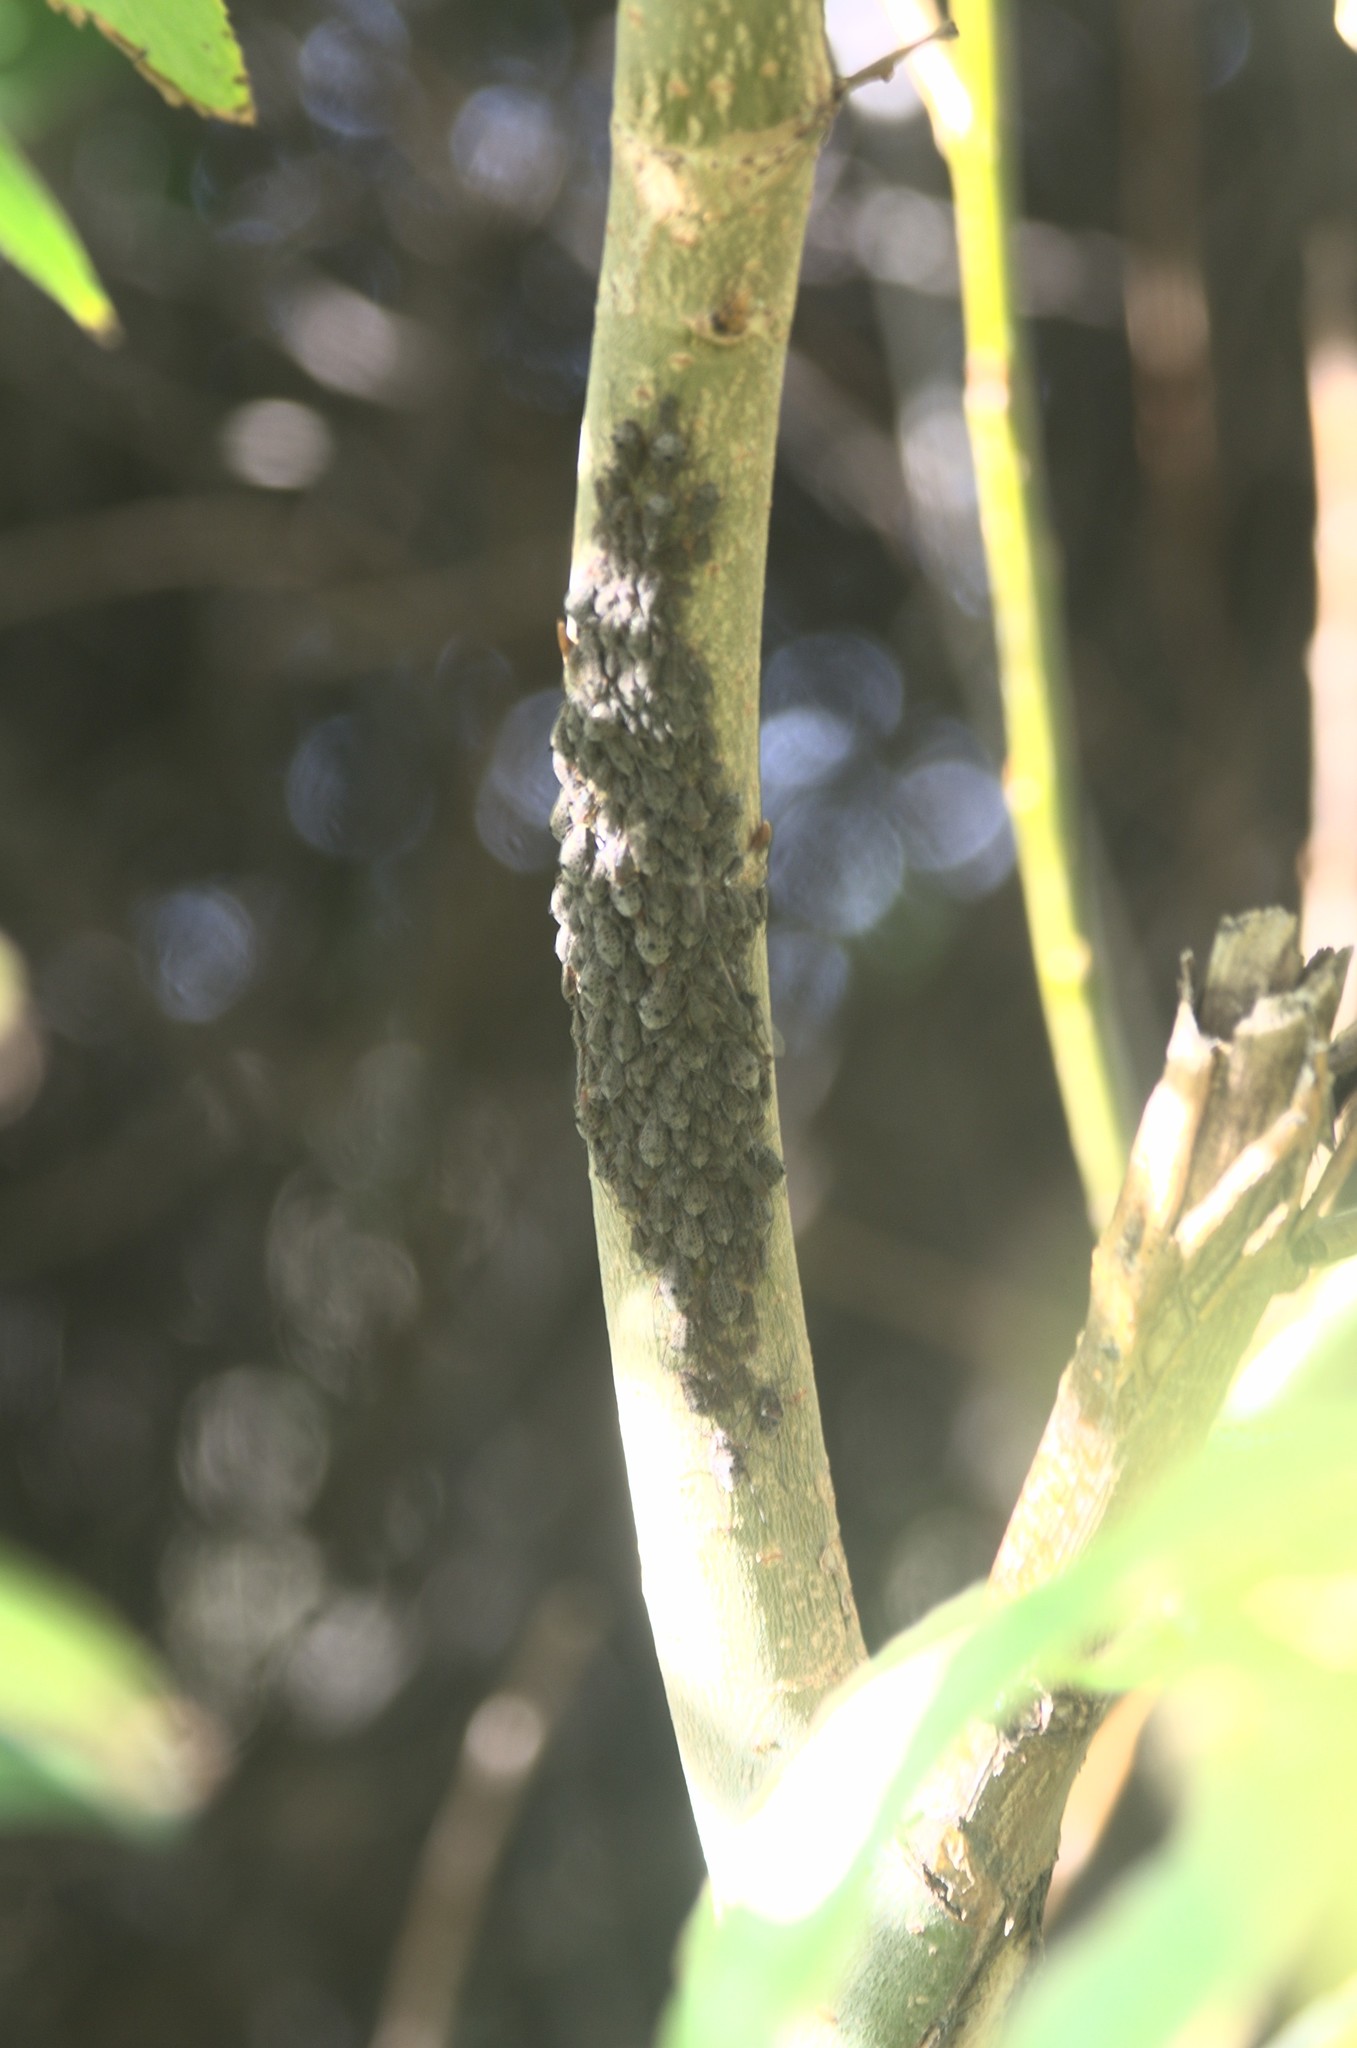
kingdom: Animalia
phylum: Arthropoda
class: Insecta
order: Hemiptera
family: Aphididae
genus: Tuberolachnus
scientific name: Tuberolachnus salignus
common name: Giant willow aphid
